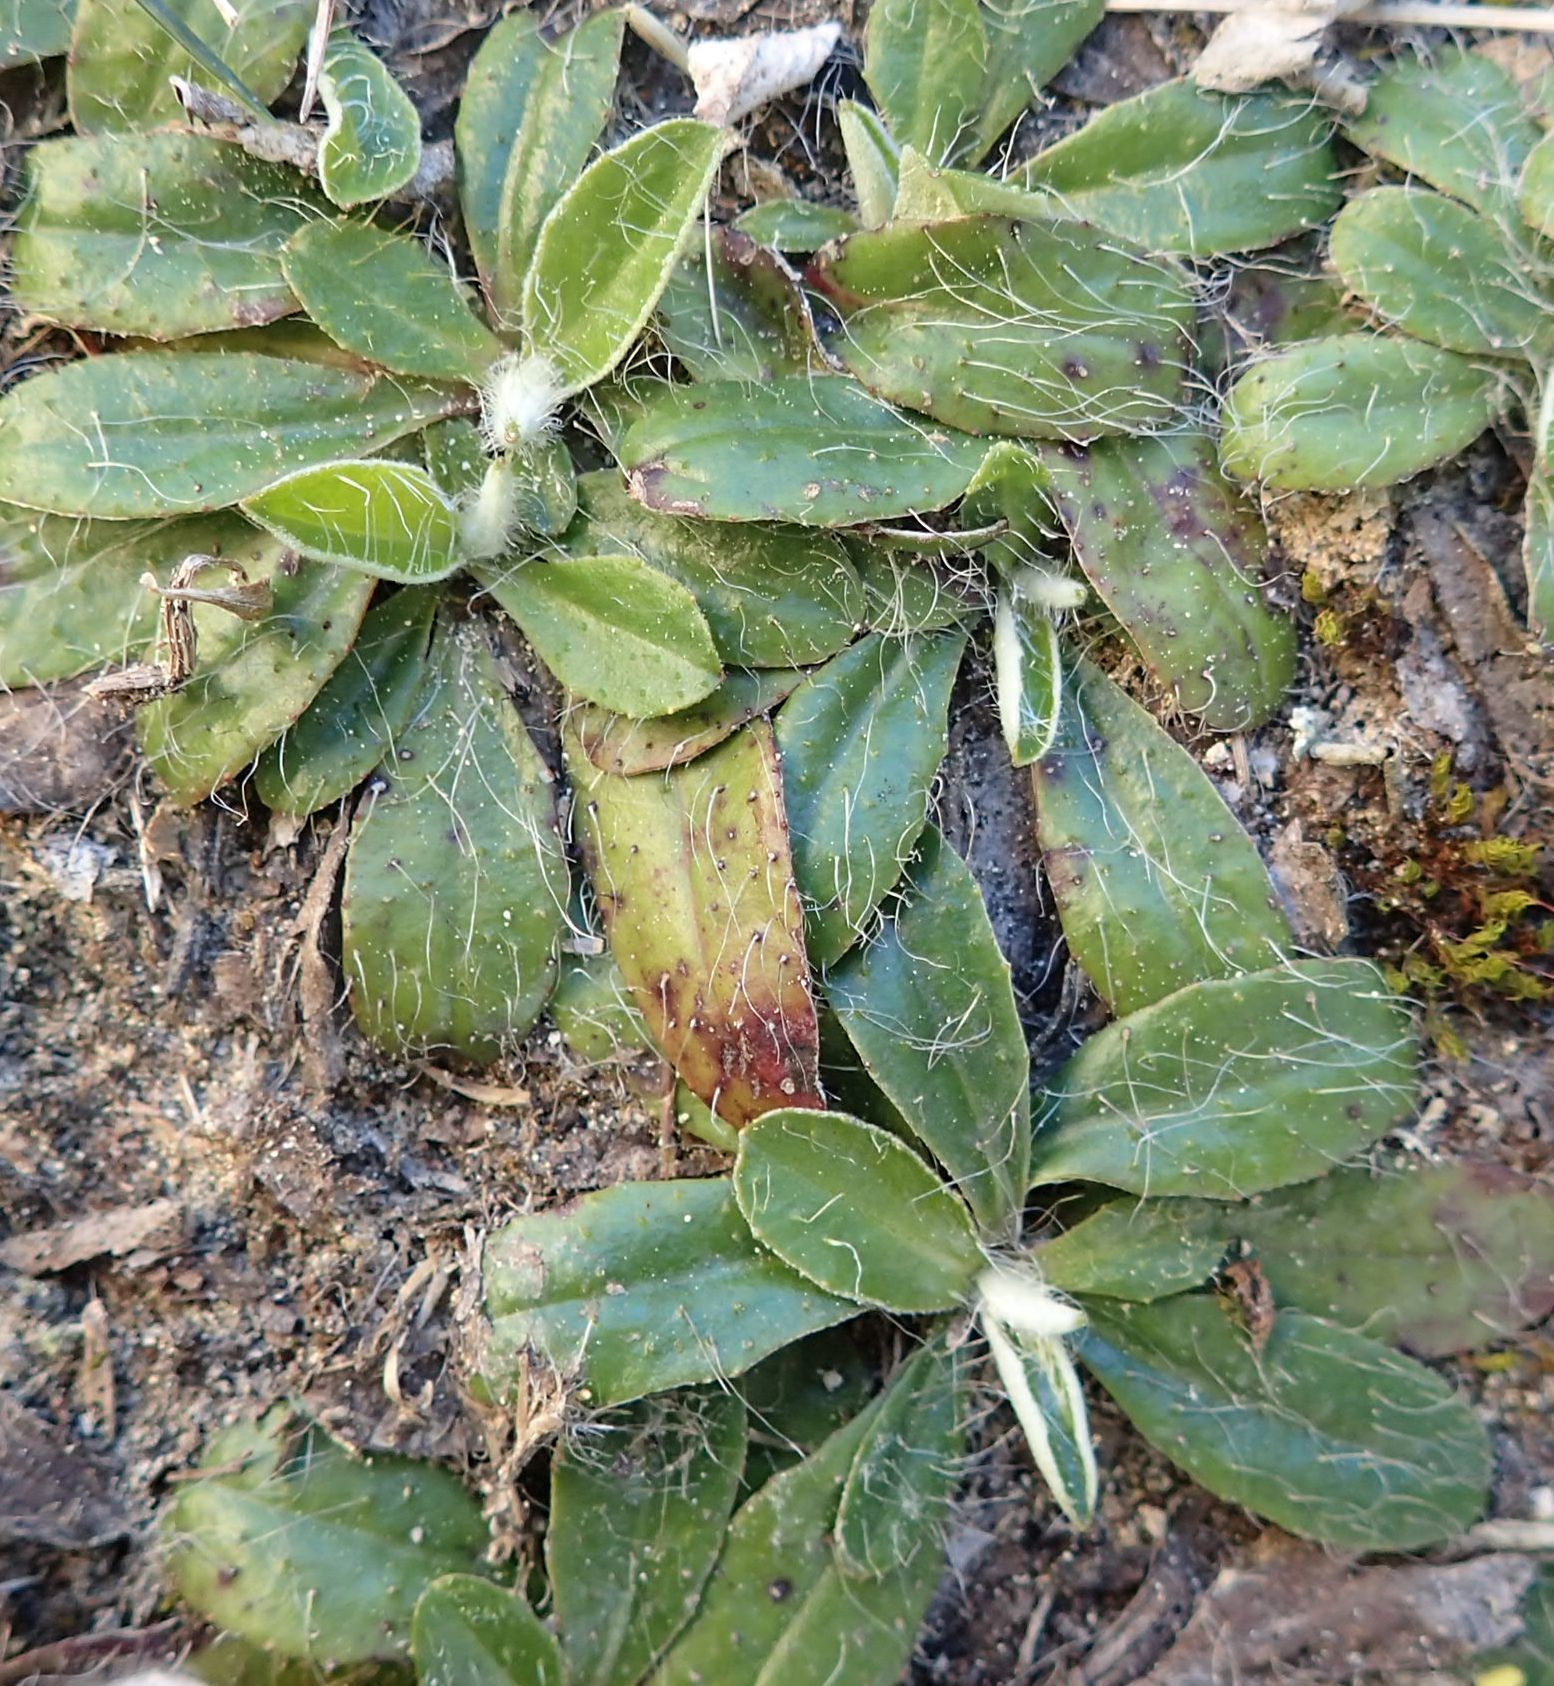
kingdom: Plantae
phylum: Tracheophyta
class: Magnoliopsida
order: Asterales
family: Asteraceae
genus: Pilosella
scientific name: Pilosella officinarum
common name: Mouse-ear hawkweed
